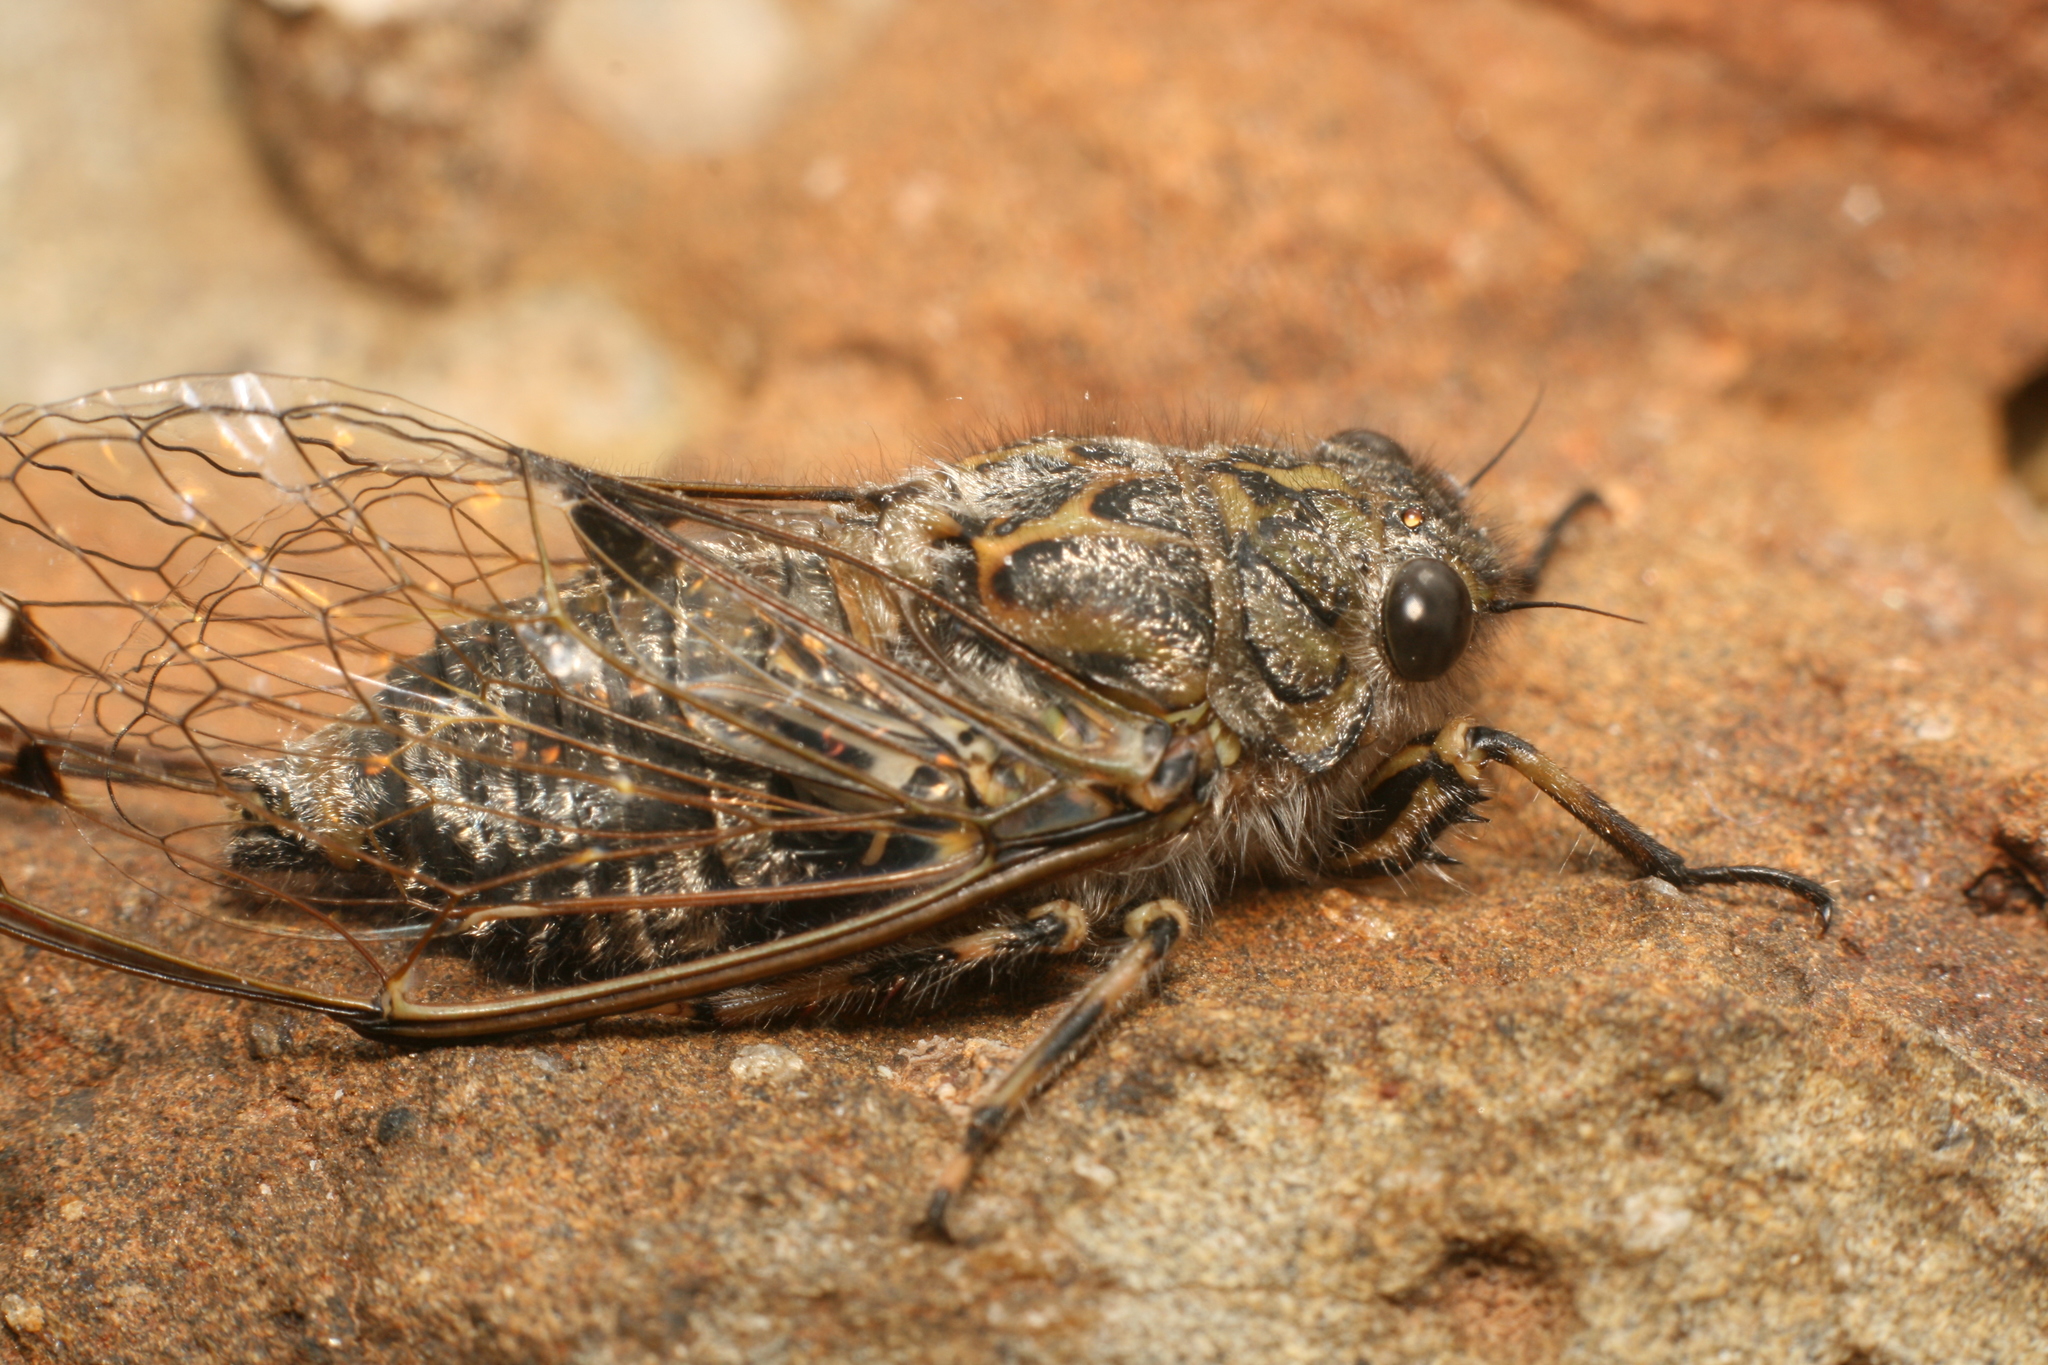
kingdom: Animalia
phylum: Arthropoda
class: Insecta
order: Hemiptera
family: Cicadidae
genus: Amphipsalta
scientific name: Amphipsalta strepitans
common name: Chirping cicada
